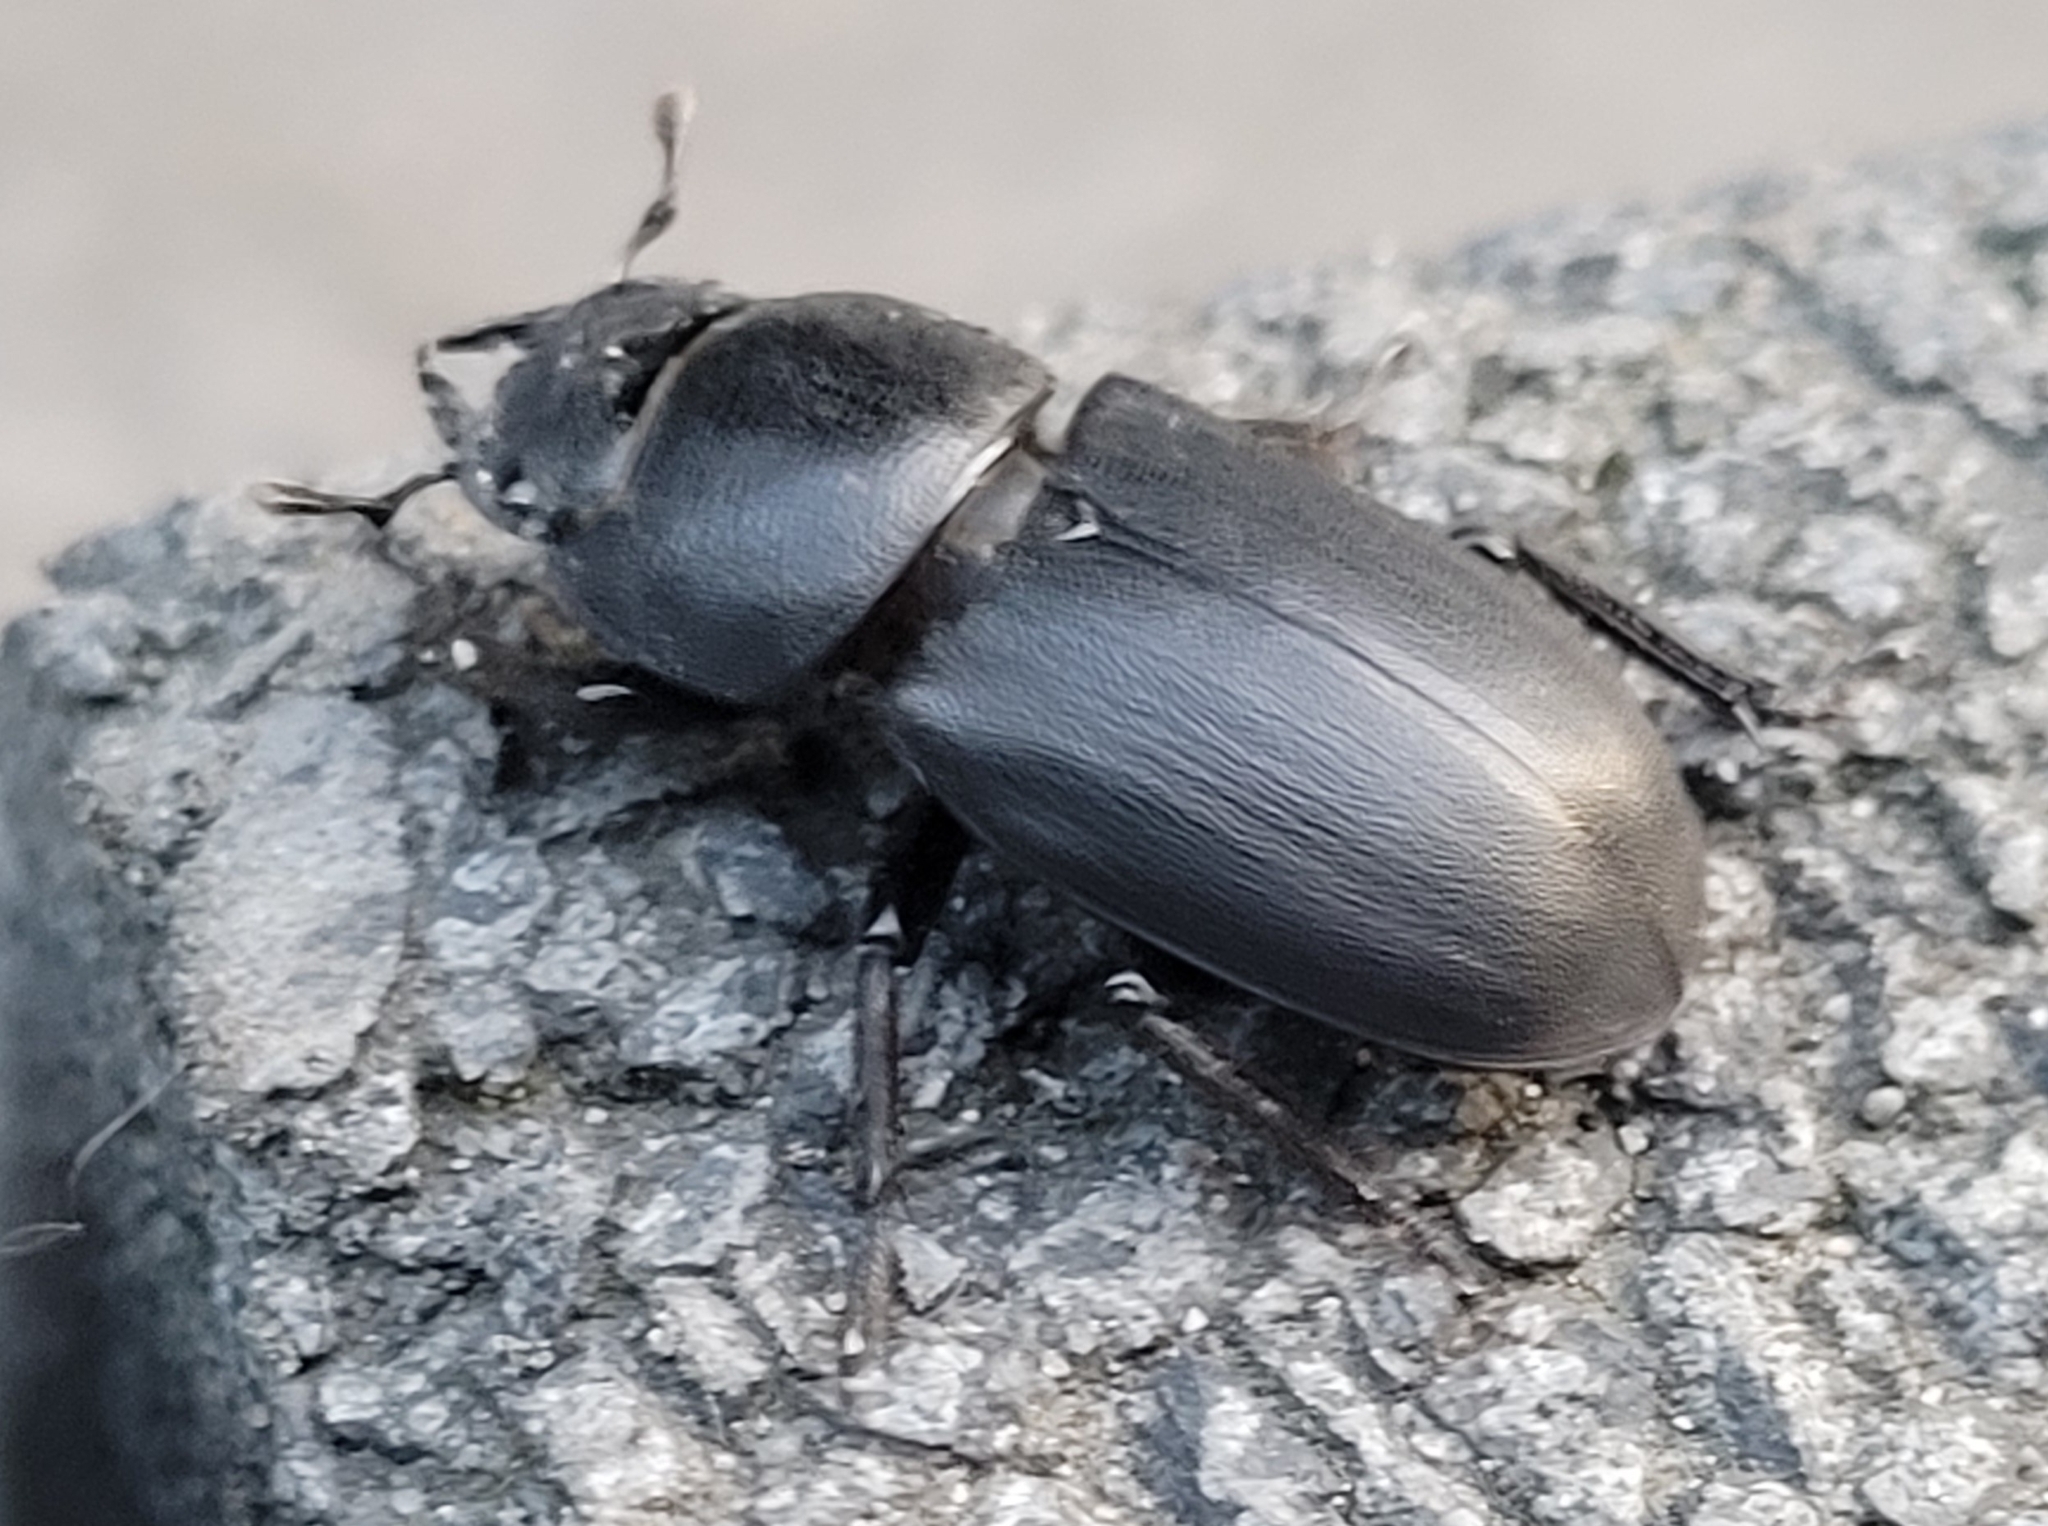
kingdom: Animalia
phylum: Arthropoda
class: Insecta
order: Coleoptera
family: Lucanidae
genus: Dorcus
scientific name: Dorcus parallelipipedus
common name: Lesser stag beetle
